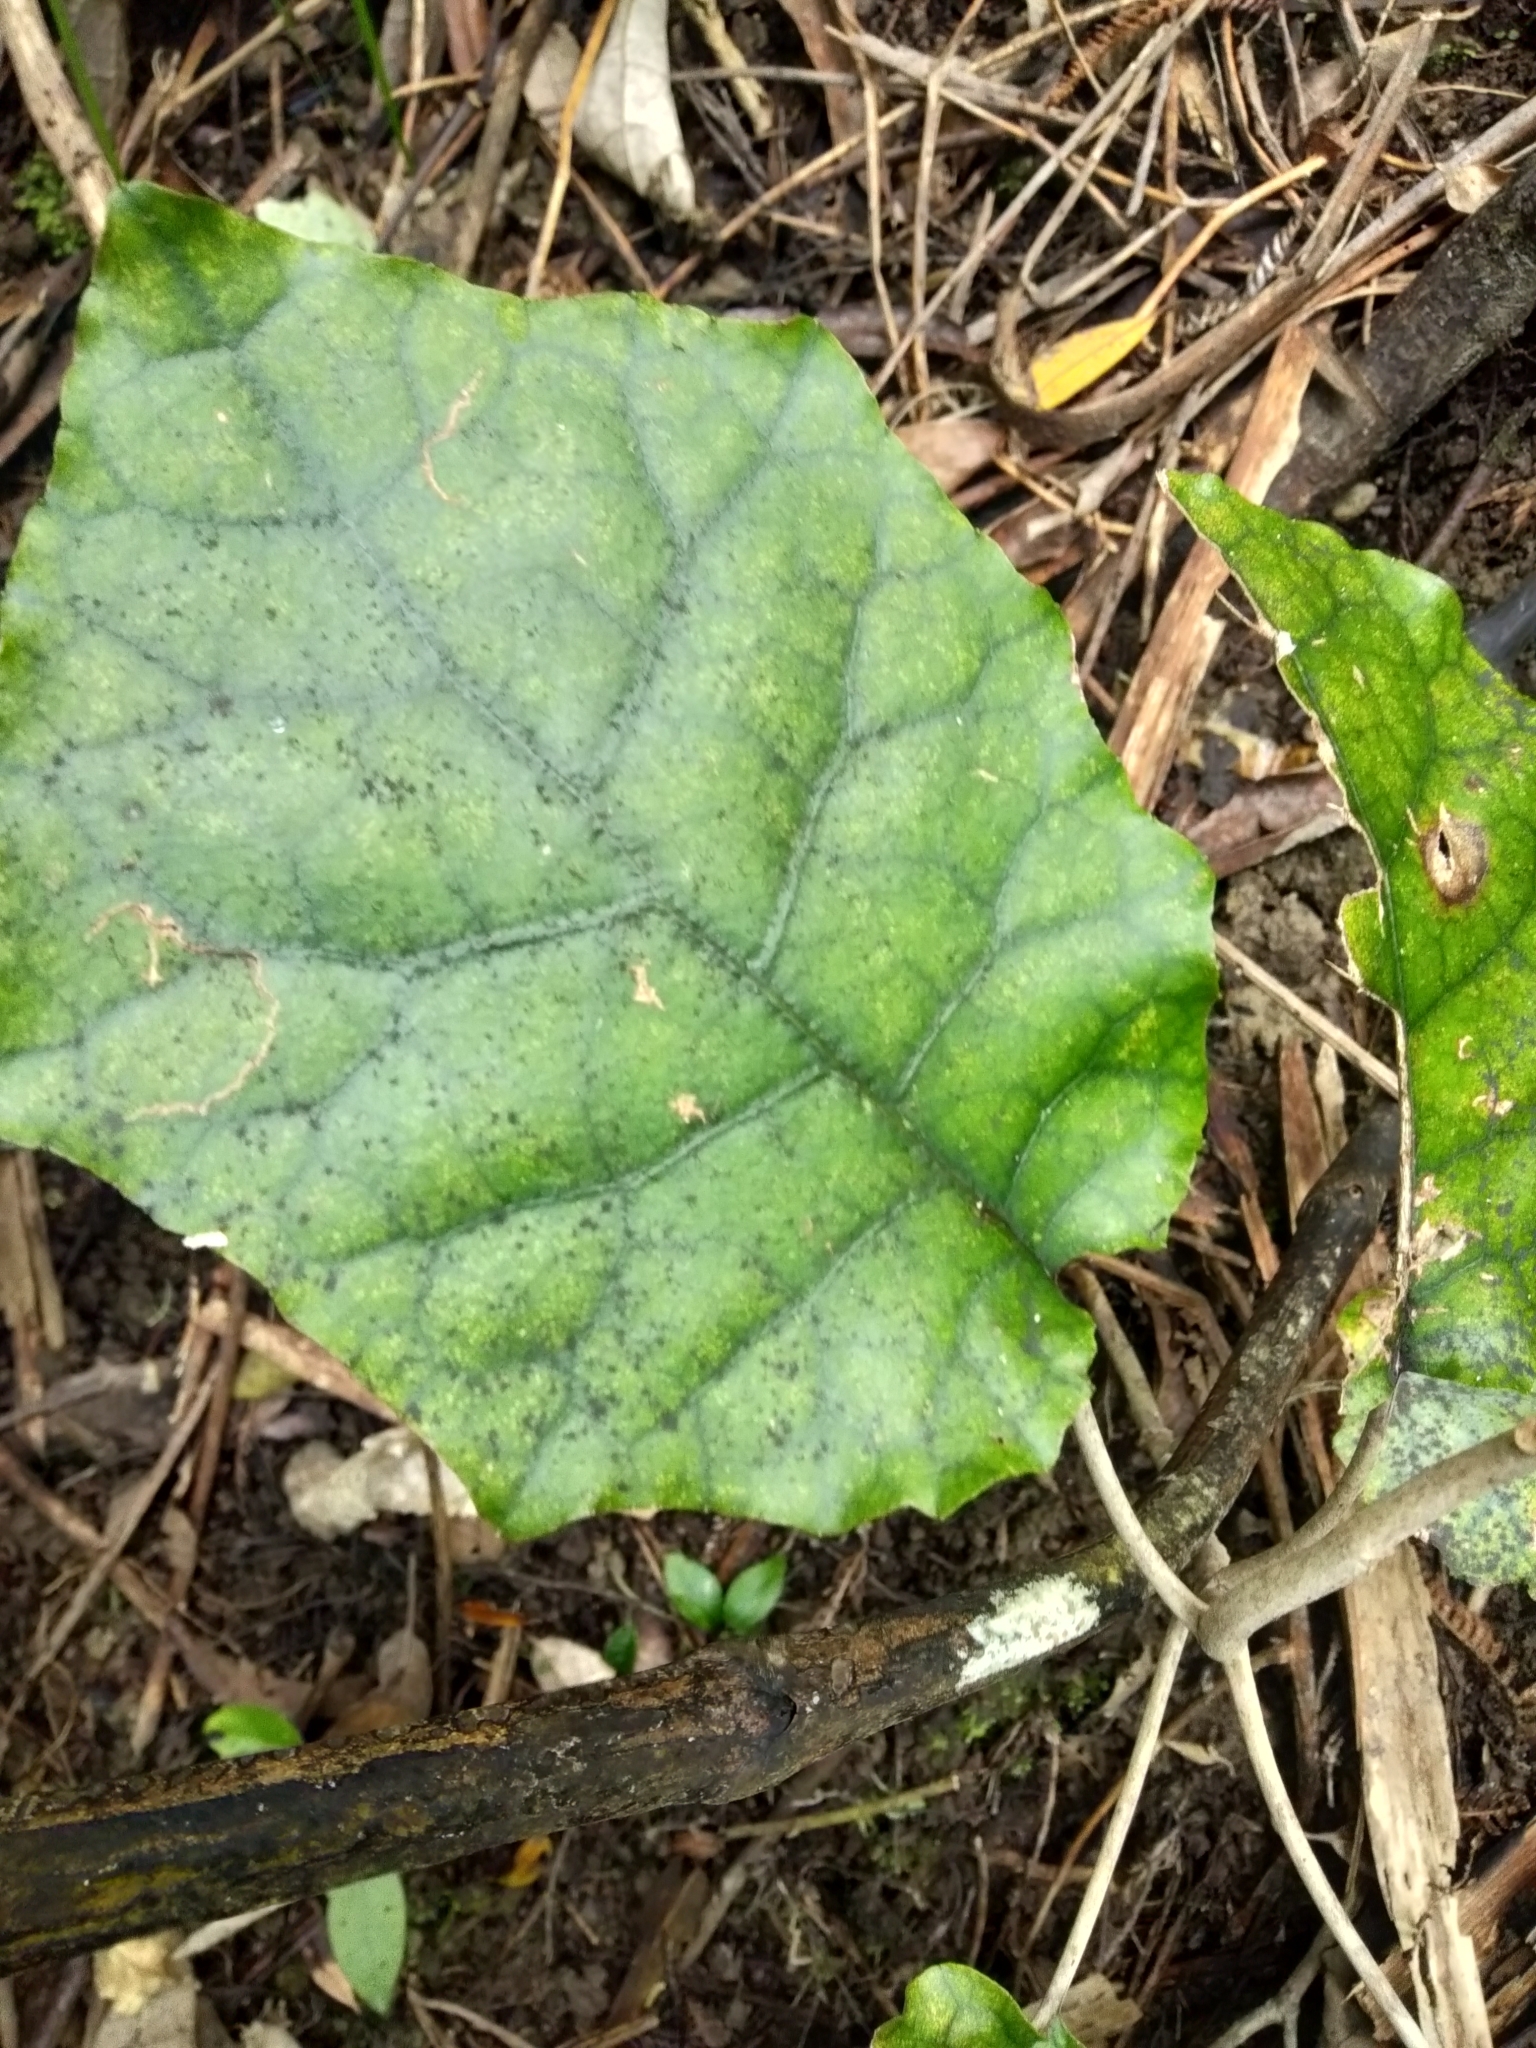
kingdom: Plantae
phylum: Tracheophyta
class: Magnoliopsida
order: Asterales
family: Asteraceae
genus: Brachyglottis
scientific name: Brachyglottis repanda
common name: Hedge ragwort
